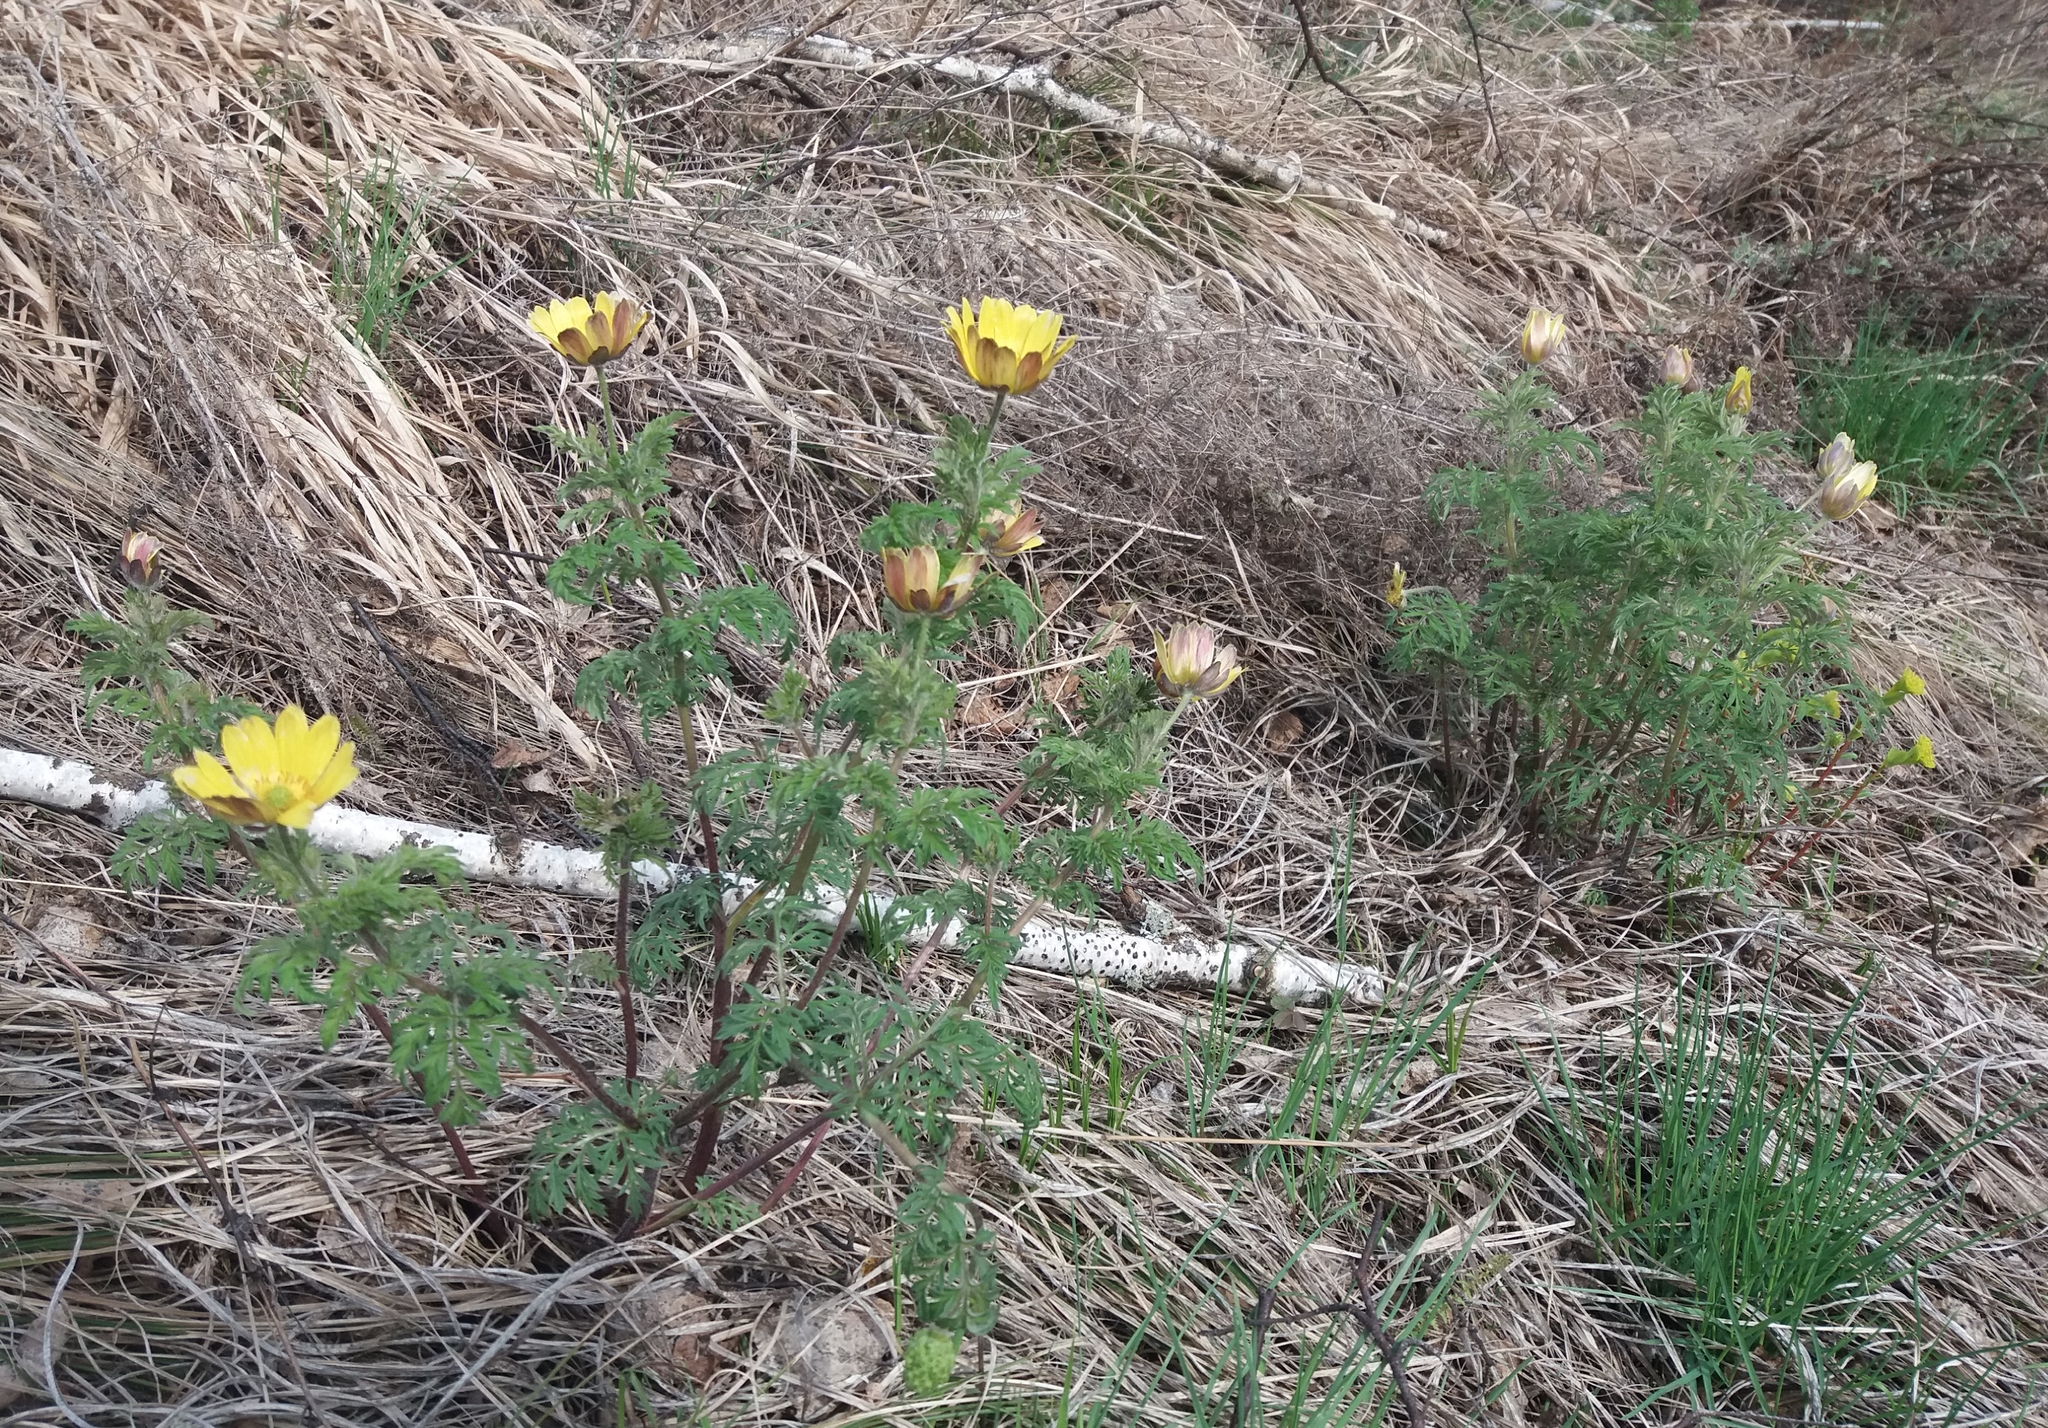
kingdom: Plantae
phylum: Tracheophyta
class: Magnoliopsida
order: Ranunculales
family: Ranunculaceae
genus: Adonis
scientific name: Adonis
